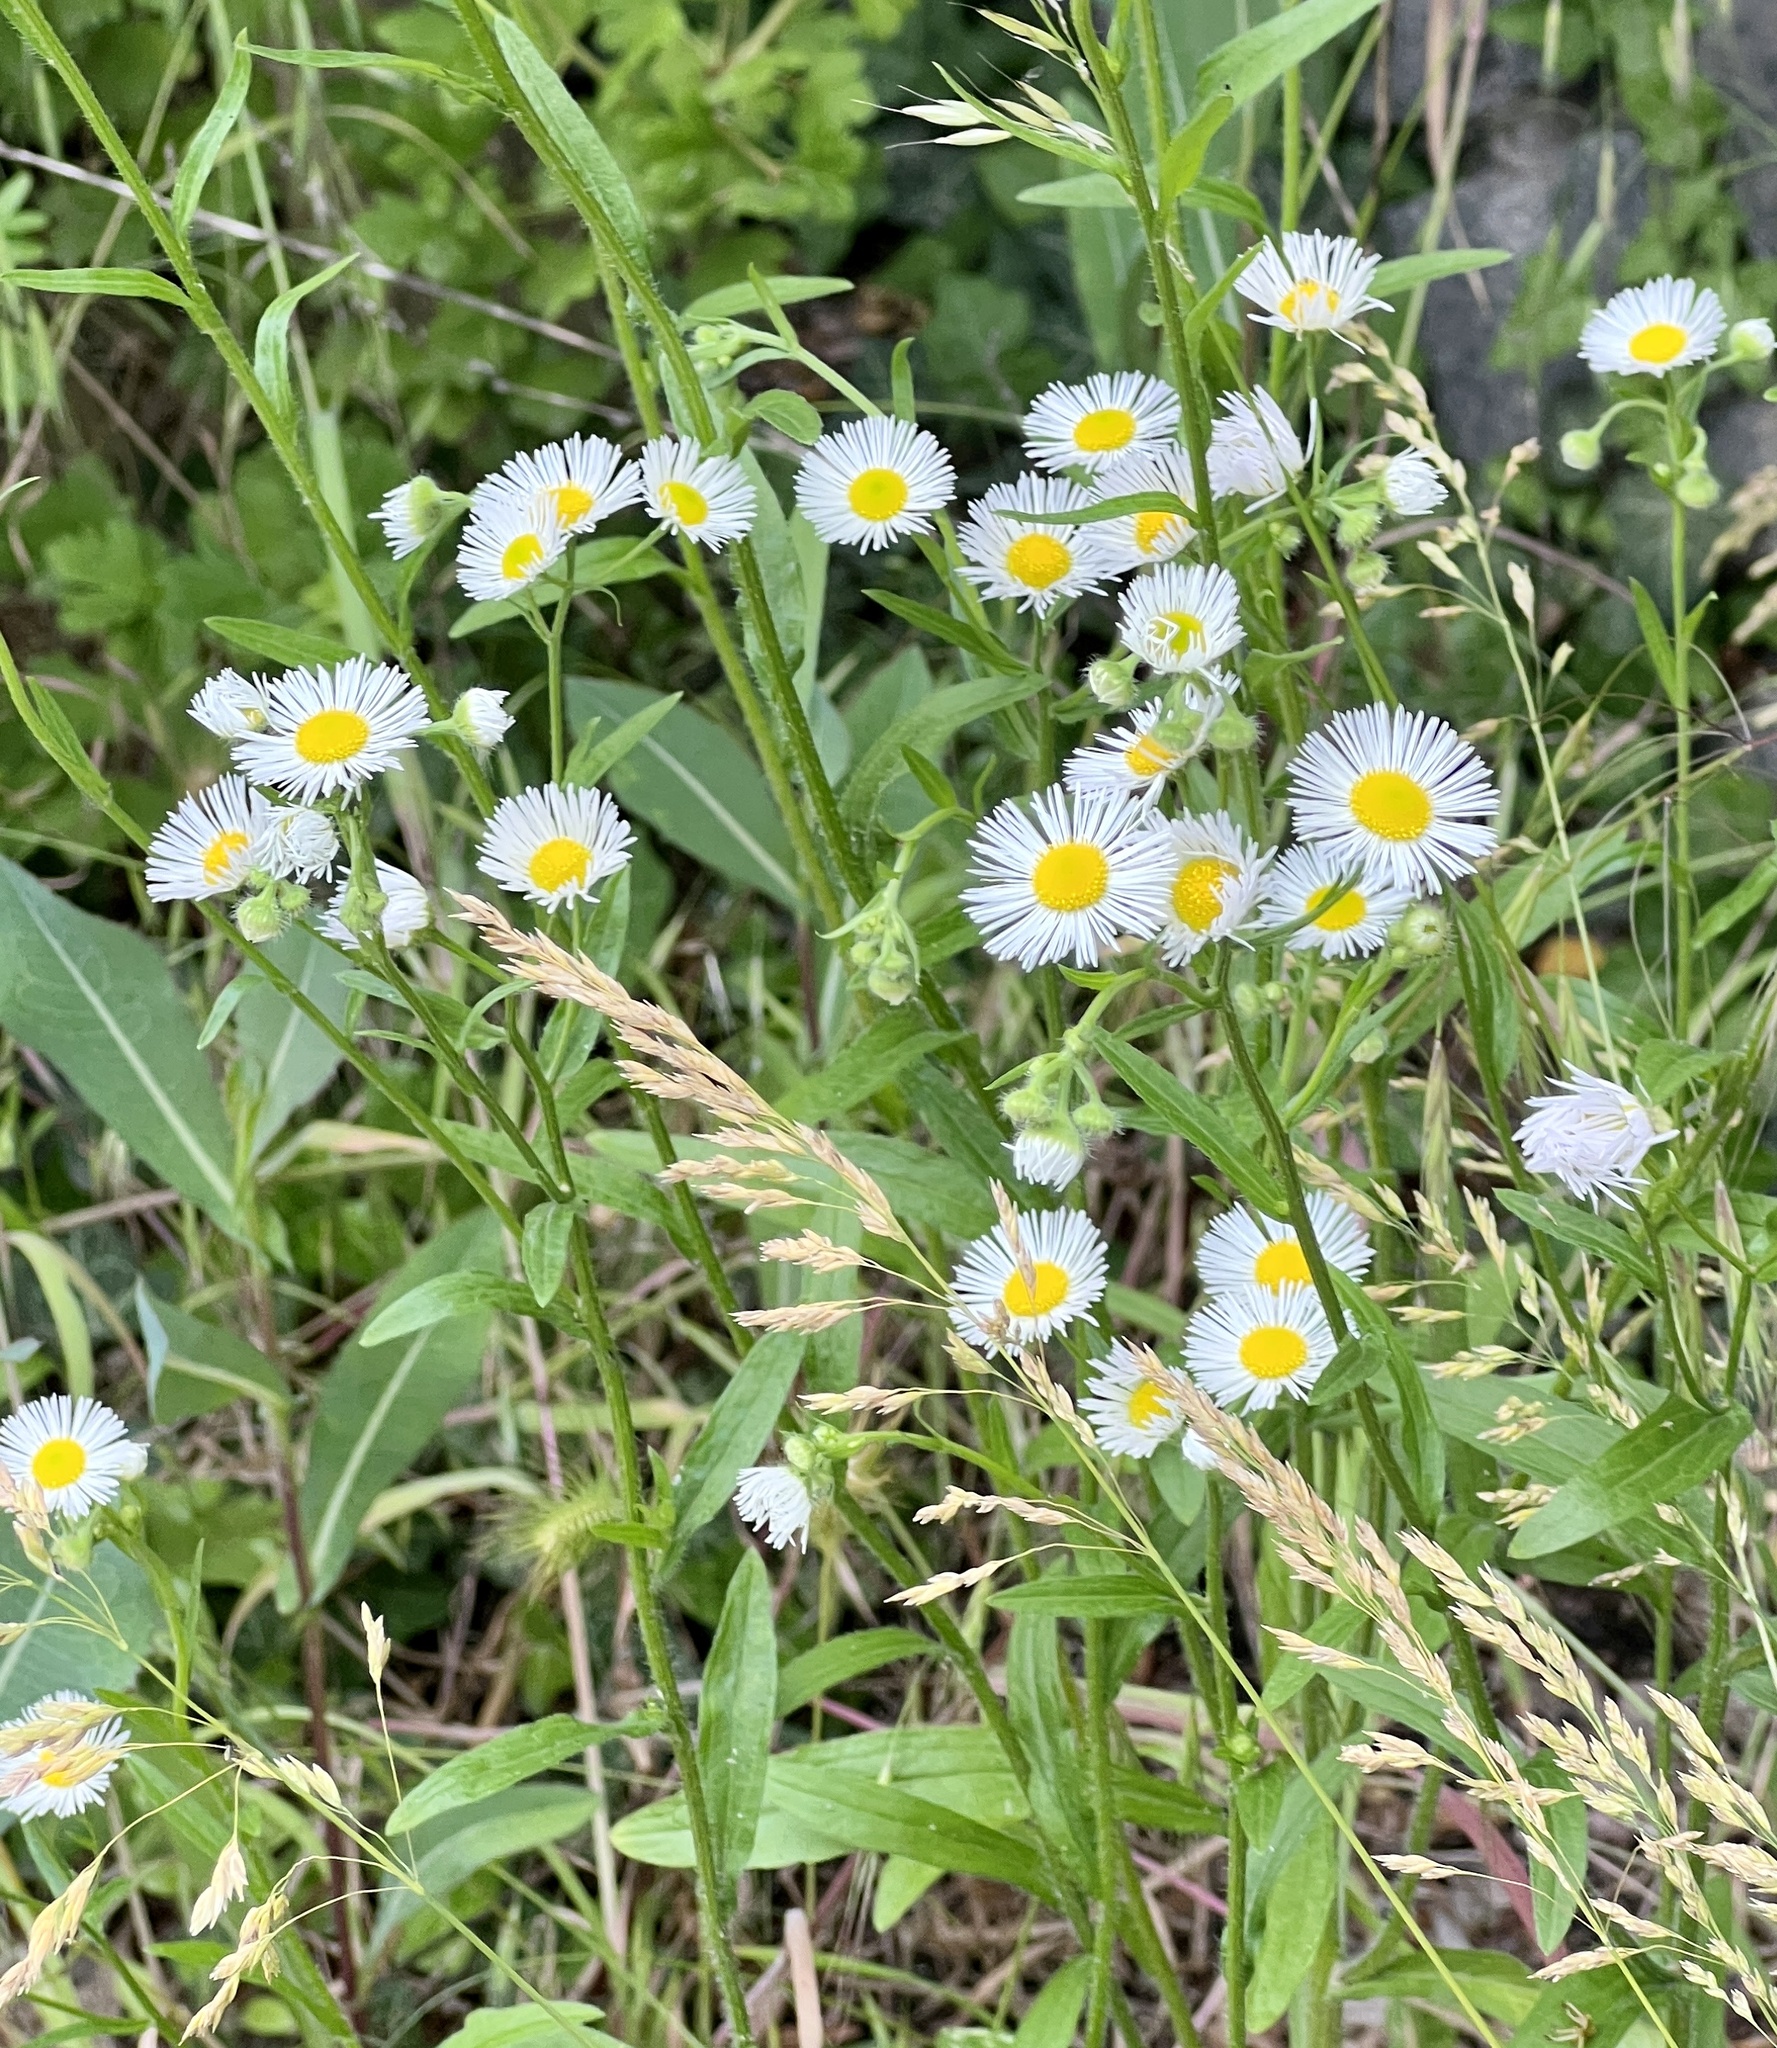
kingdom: Plantae
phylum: Tracheophyta
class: Magnoliopsida
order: Asterales
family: Asteraceae
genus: Erigeron
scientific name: Erigeron annuus
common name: Tall fleabane
